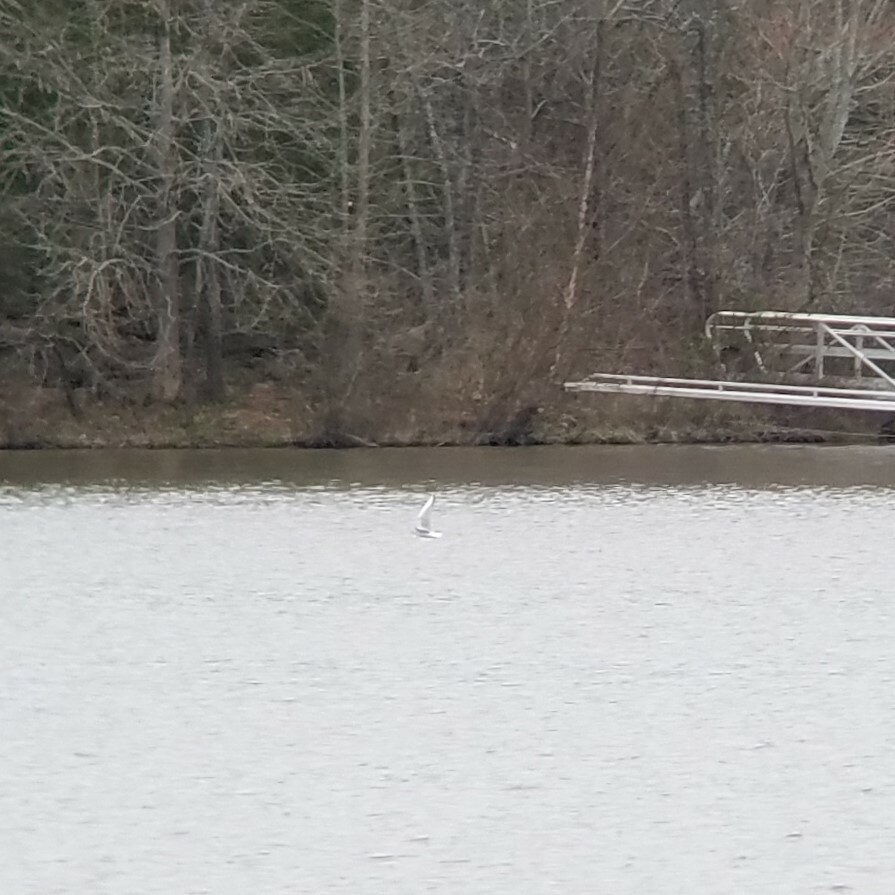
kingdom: Animalia
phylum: Chordata
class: Aves
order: Charadriiformes
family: Laridae
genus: Chroicocephalus
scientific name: Chroicocephalus philadelphia
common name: Bonaparte's gull
